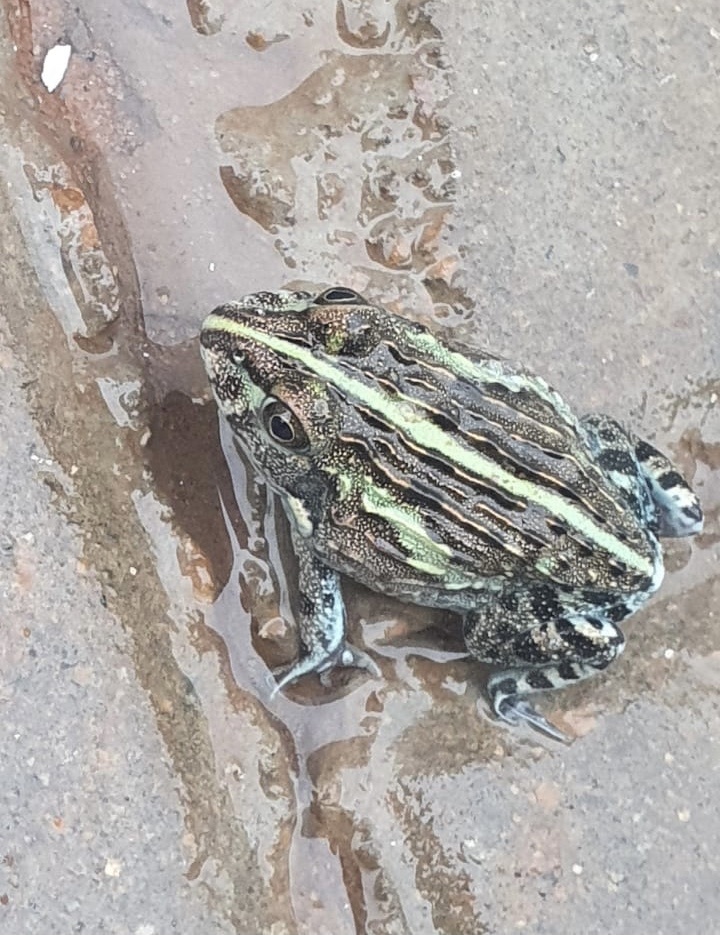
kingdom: Animalia
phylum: Chordata
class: Amphibia
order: Anura
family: Pyxicephalidae
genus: Pyxicephalus
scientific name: Pyxicephalus edulis
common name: Peter's bullfrog
